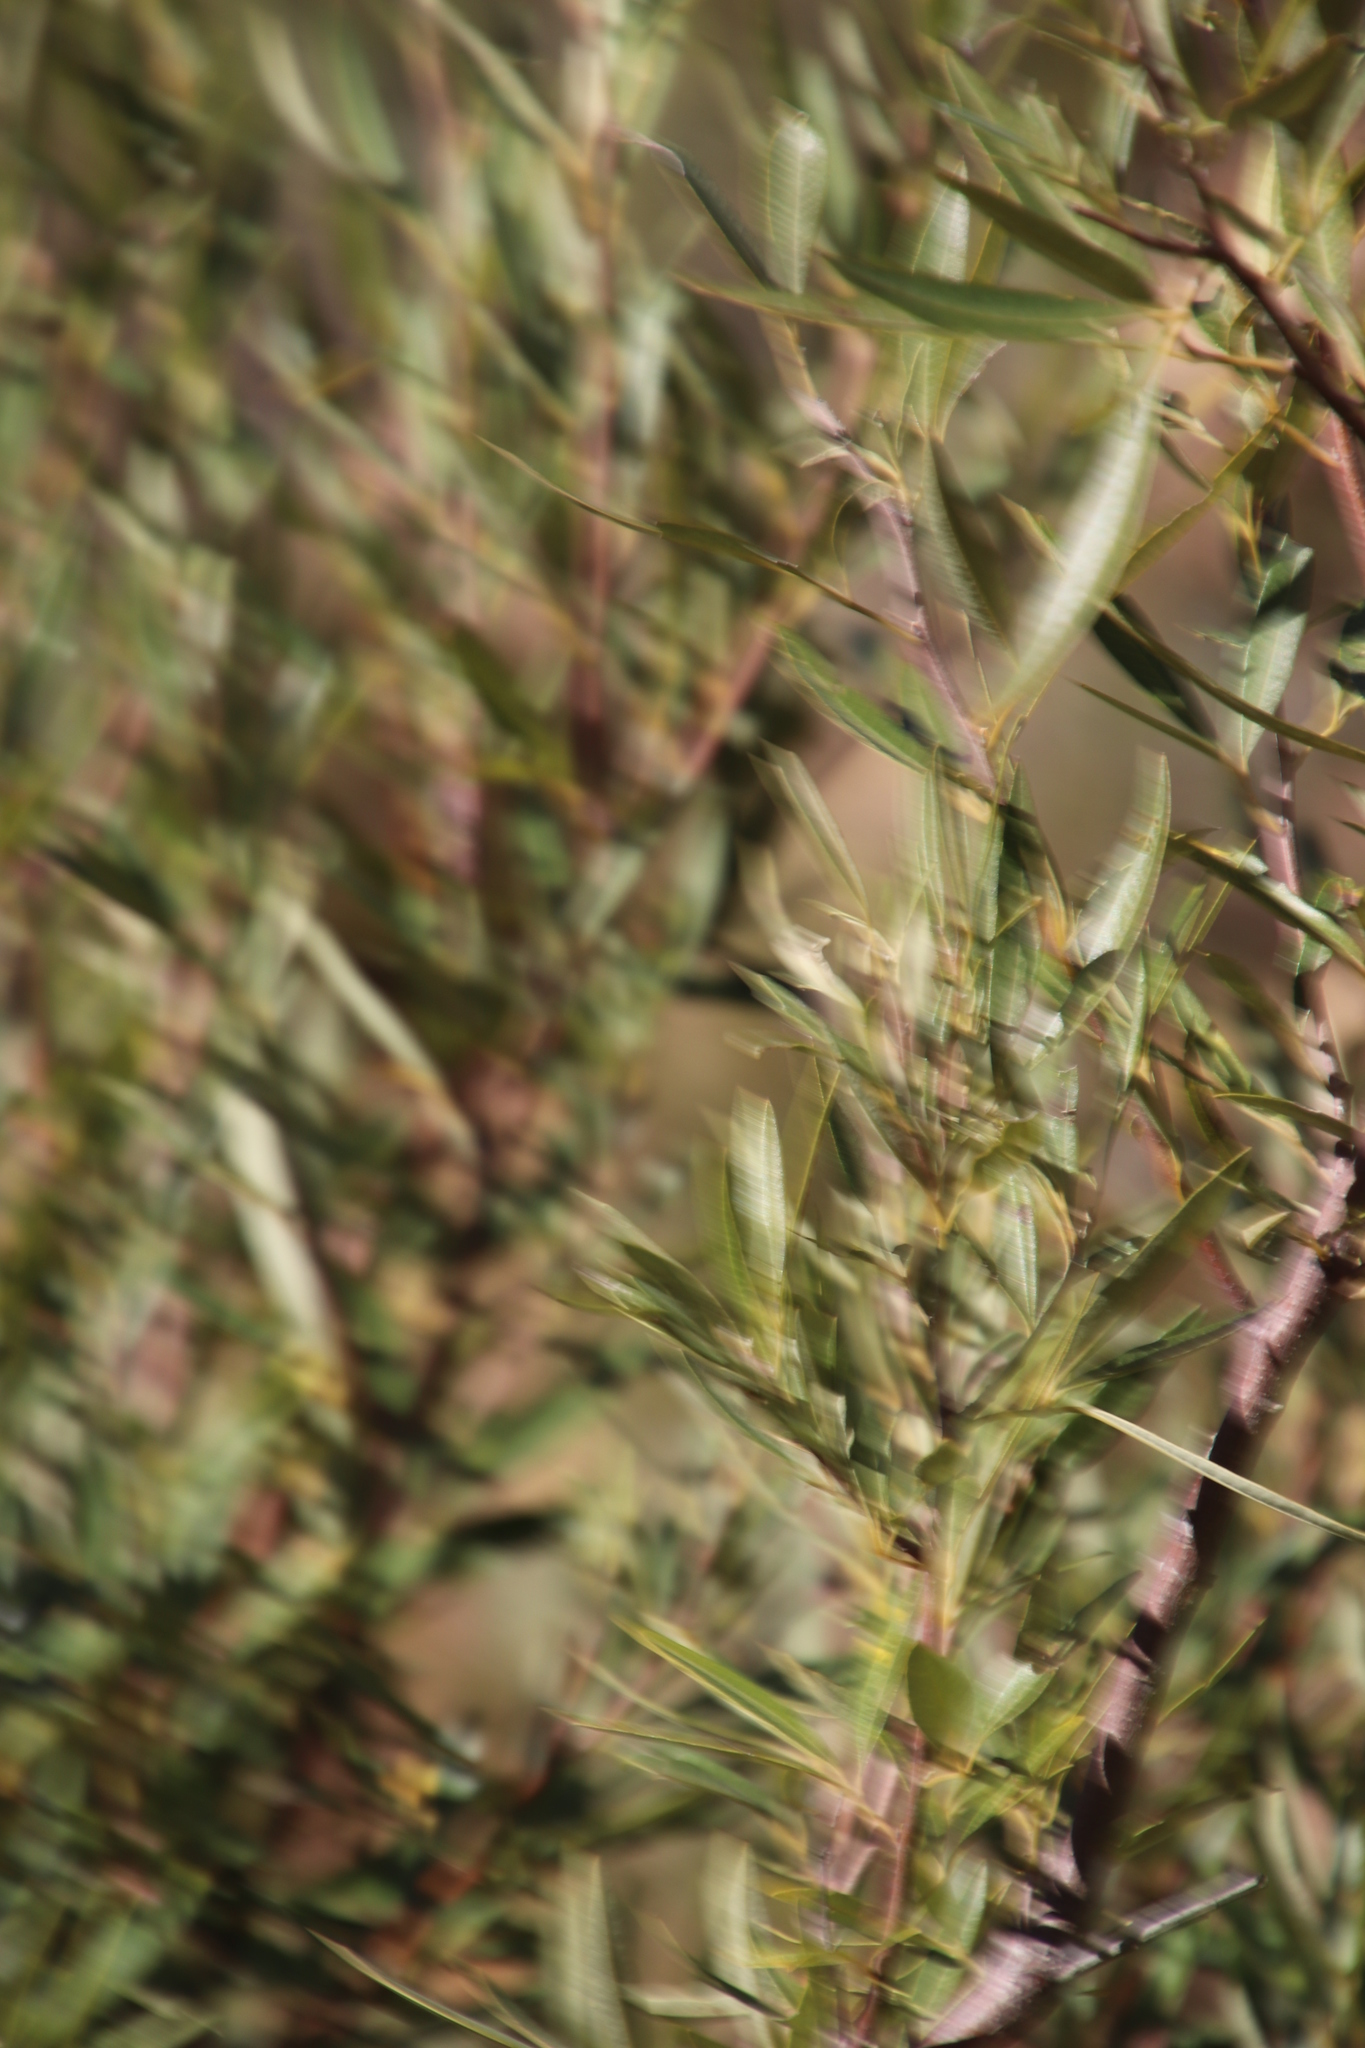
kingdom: Plantae
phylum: Tracheophyta
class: Magnoliopsida
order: Sapindales
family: Anacardiaceae
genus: Searsia
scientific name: Searsia angustifolia
